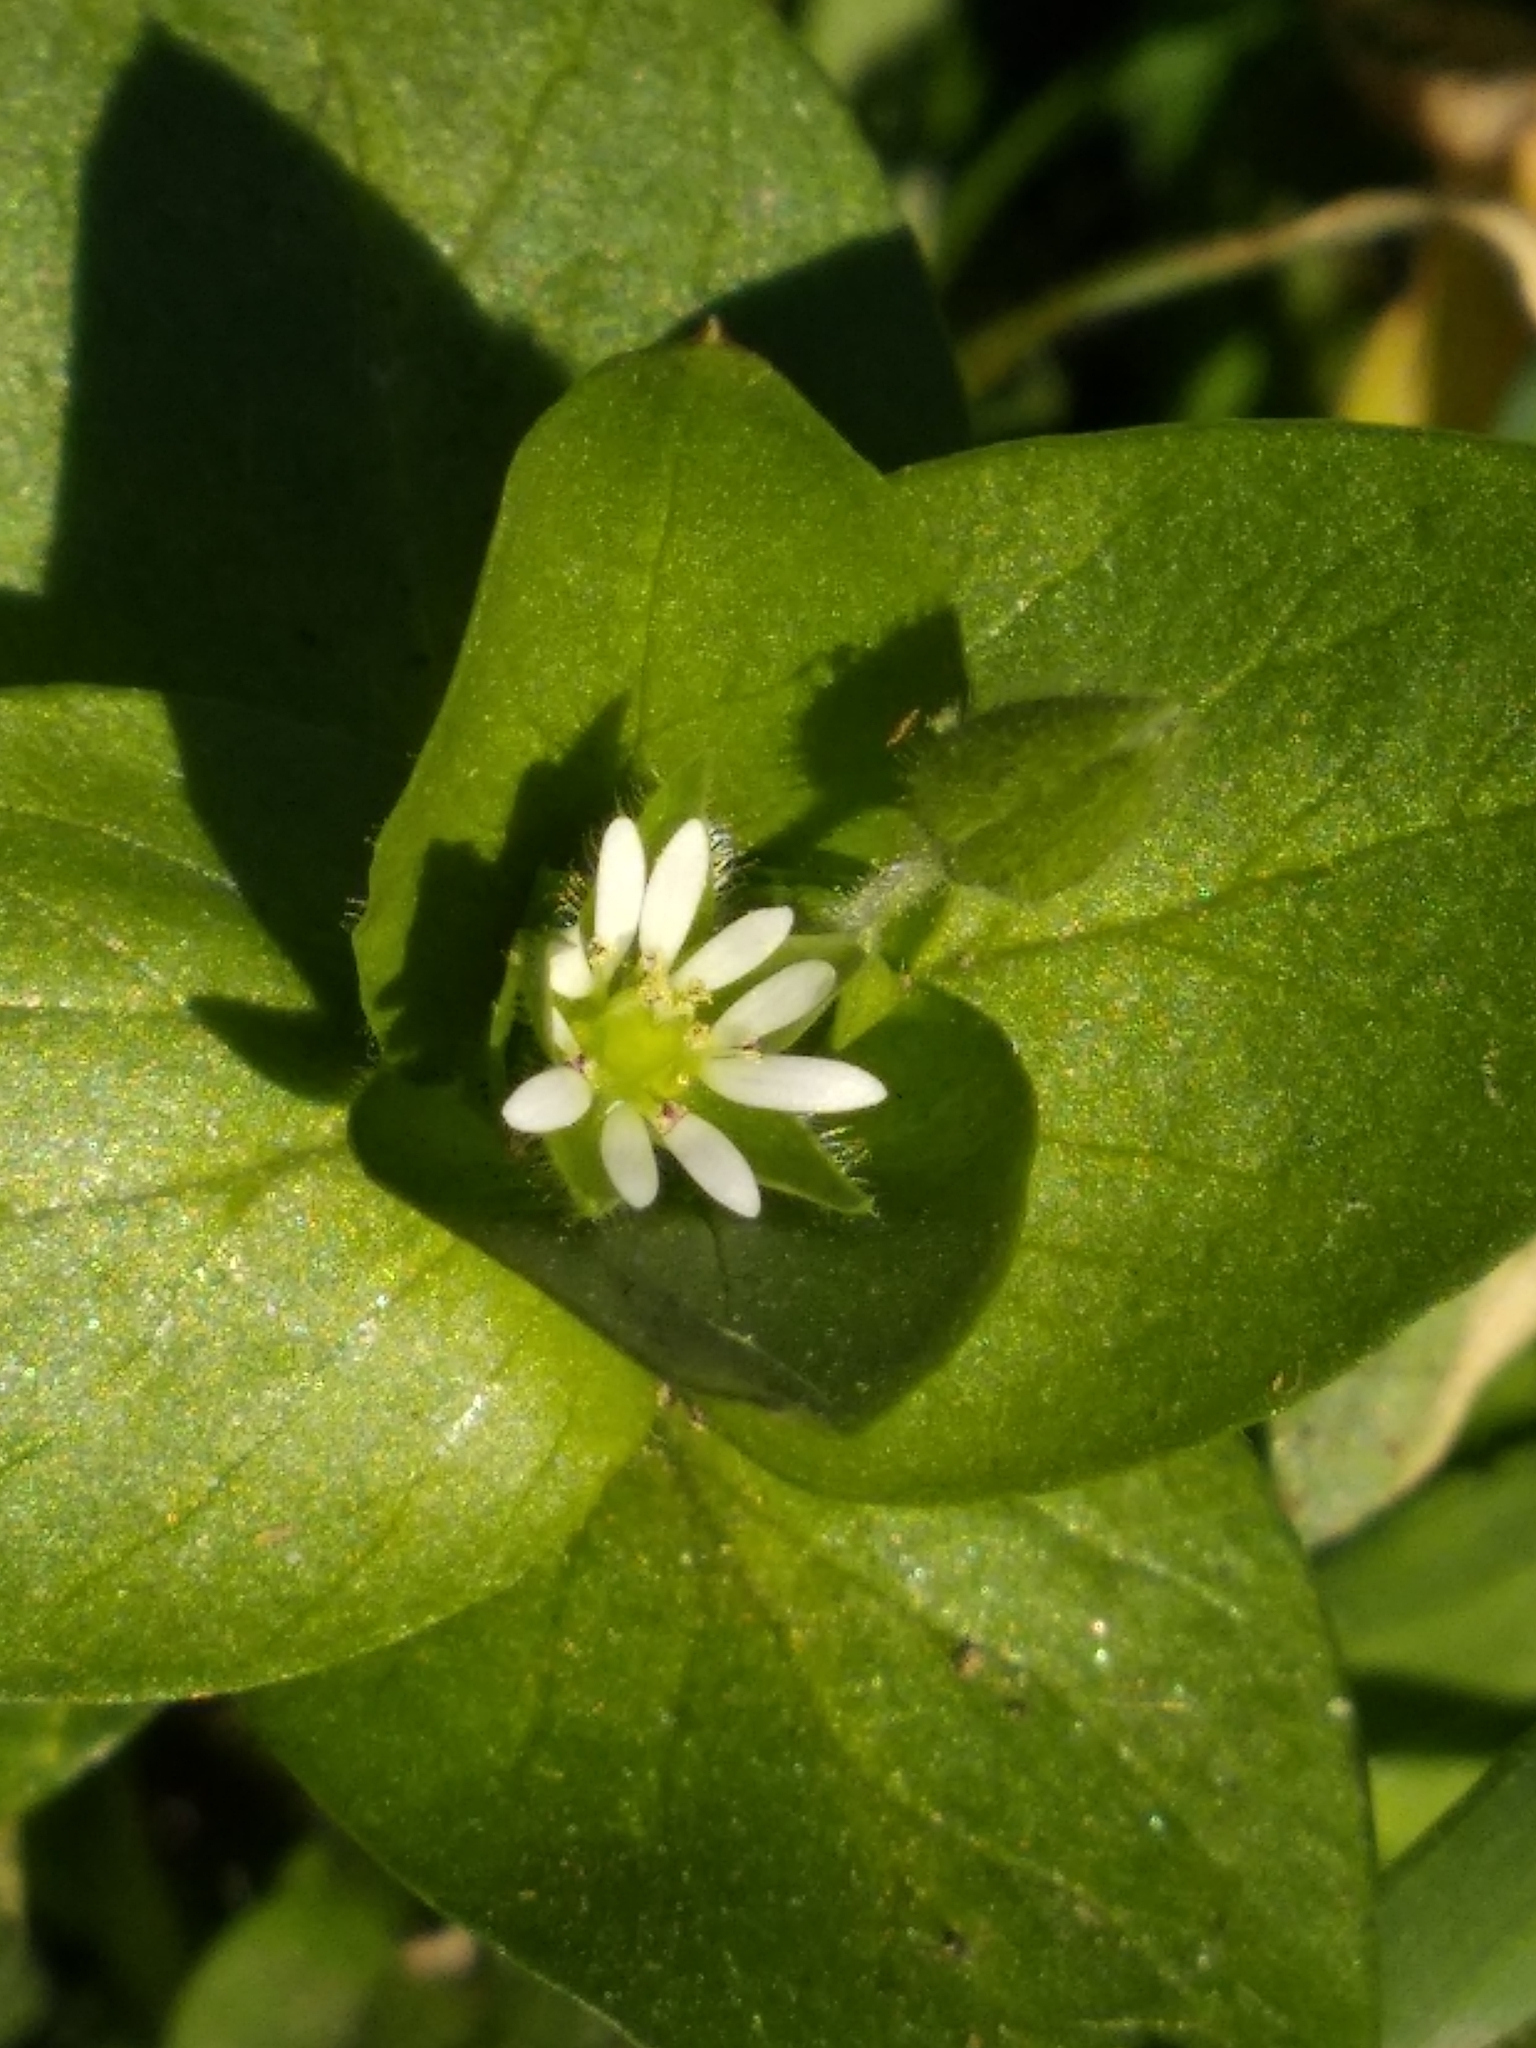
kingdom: Plantae
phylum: Tracheophyta
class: Magnoliopsida
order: Caryophyllales
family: Caryophyllaceae
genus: Stellaria
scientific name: Stellaria media
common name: Common chickweed
